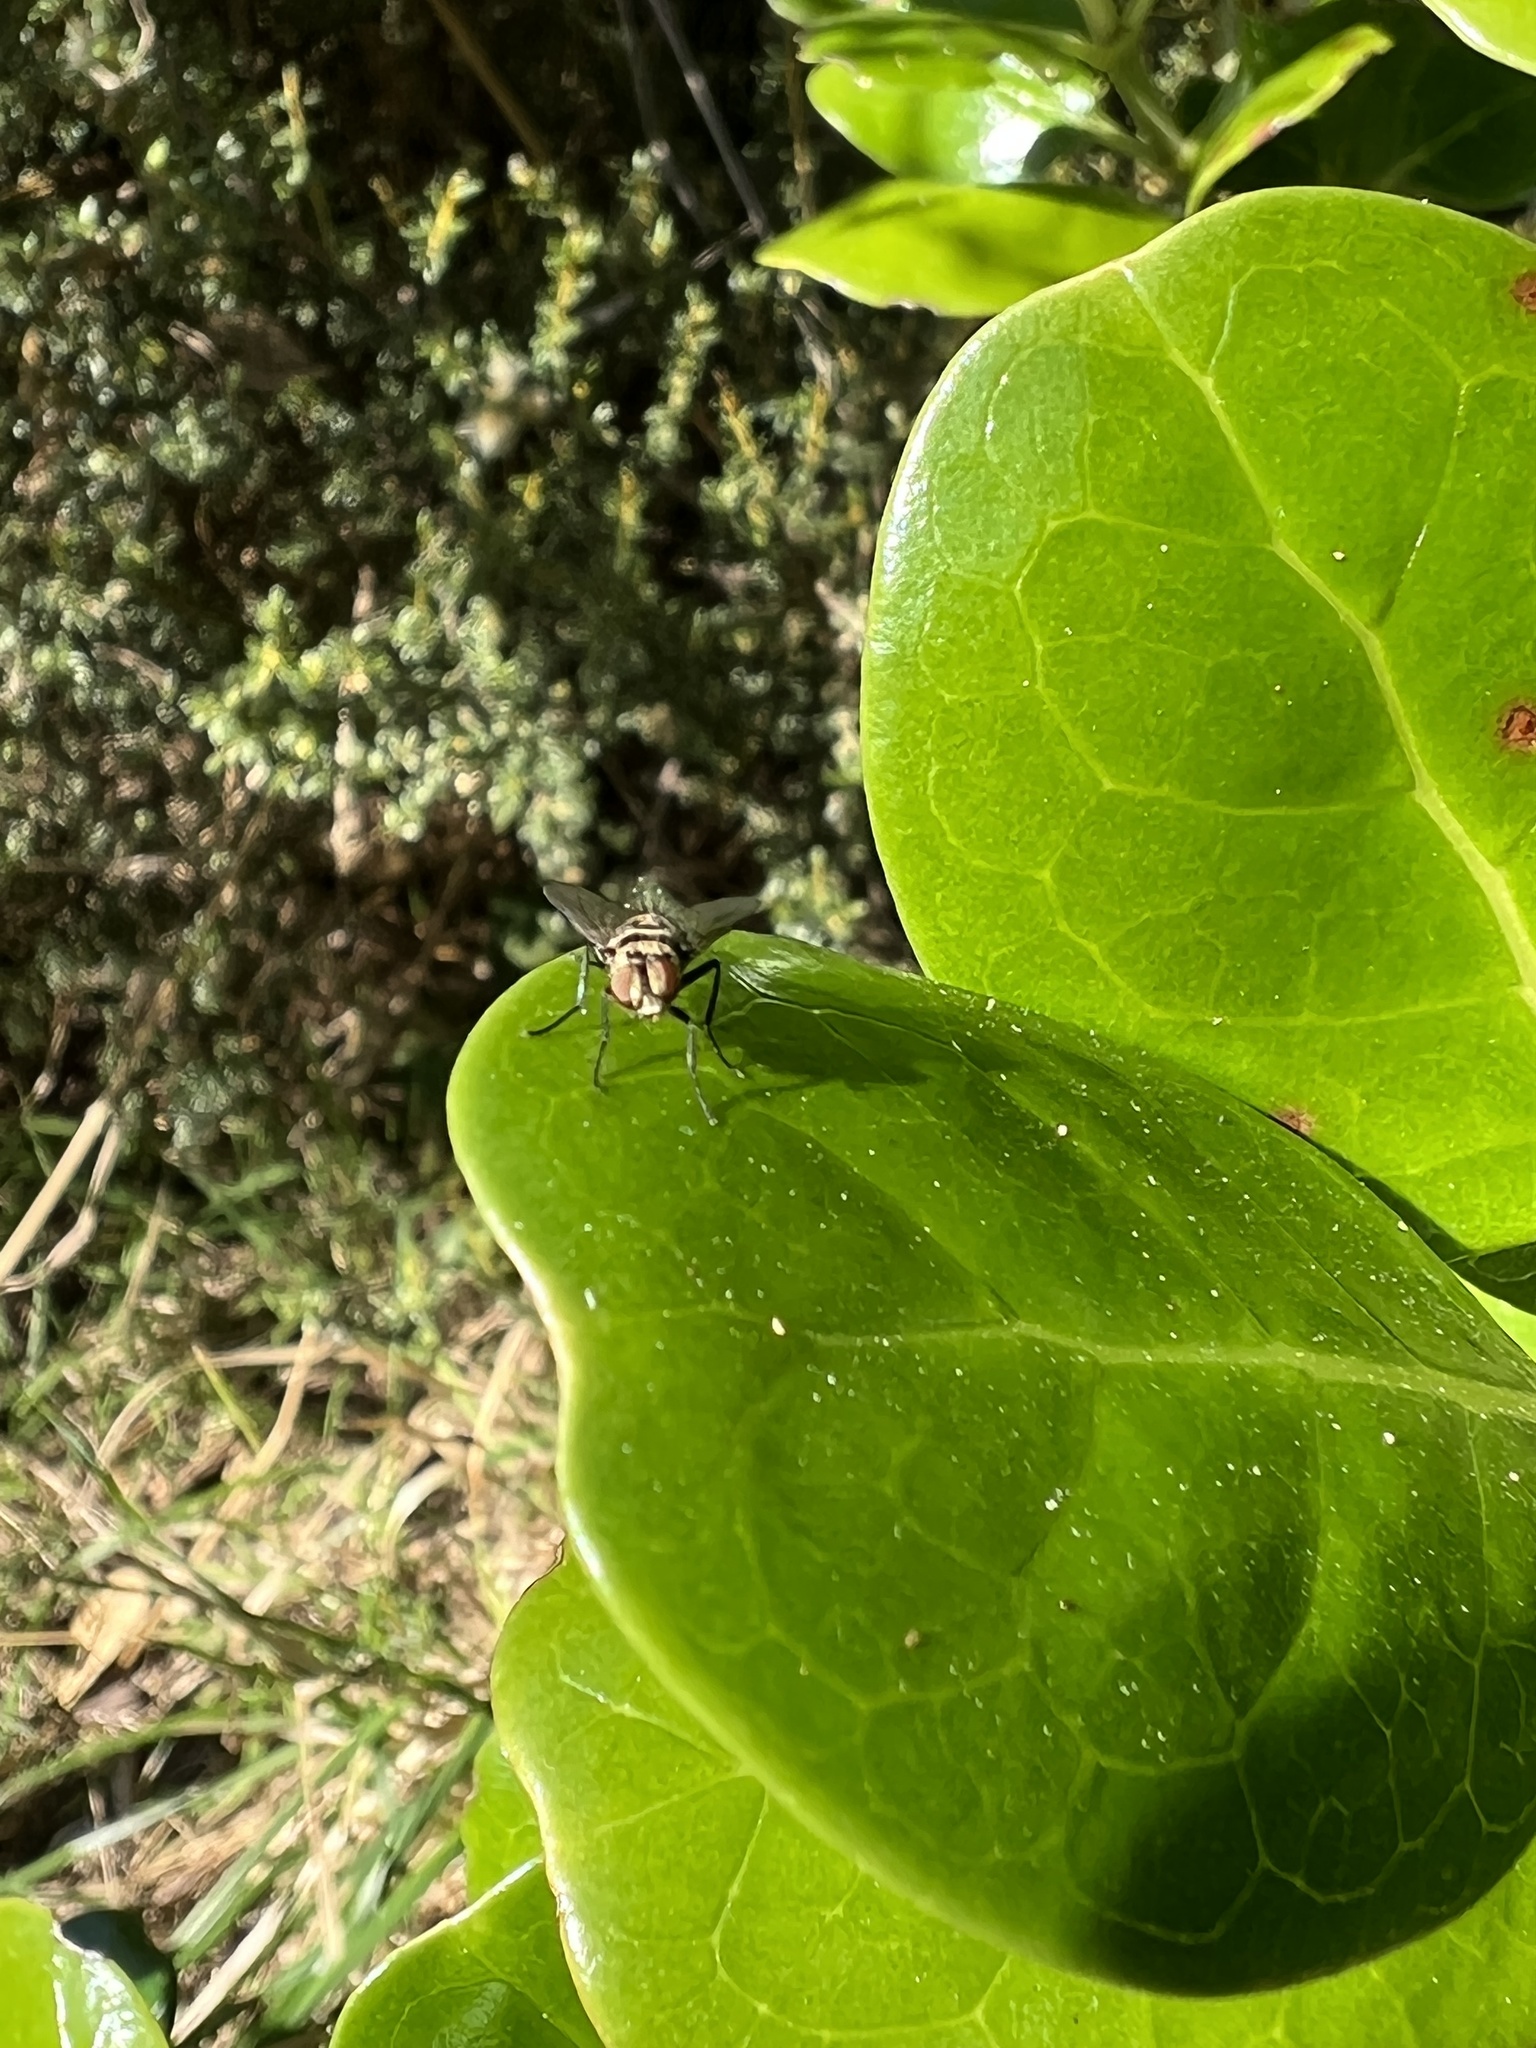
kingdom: Animalia
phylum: Arthropoda
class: Insecta
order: Diptera
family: Tachinidae
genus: Trigonospila
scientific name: Trigonospila brevifacies
